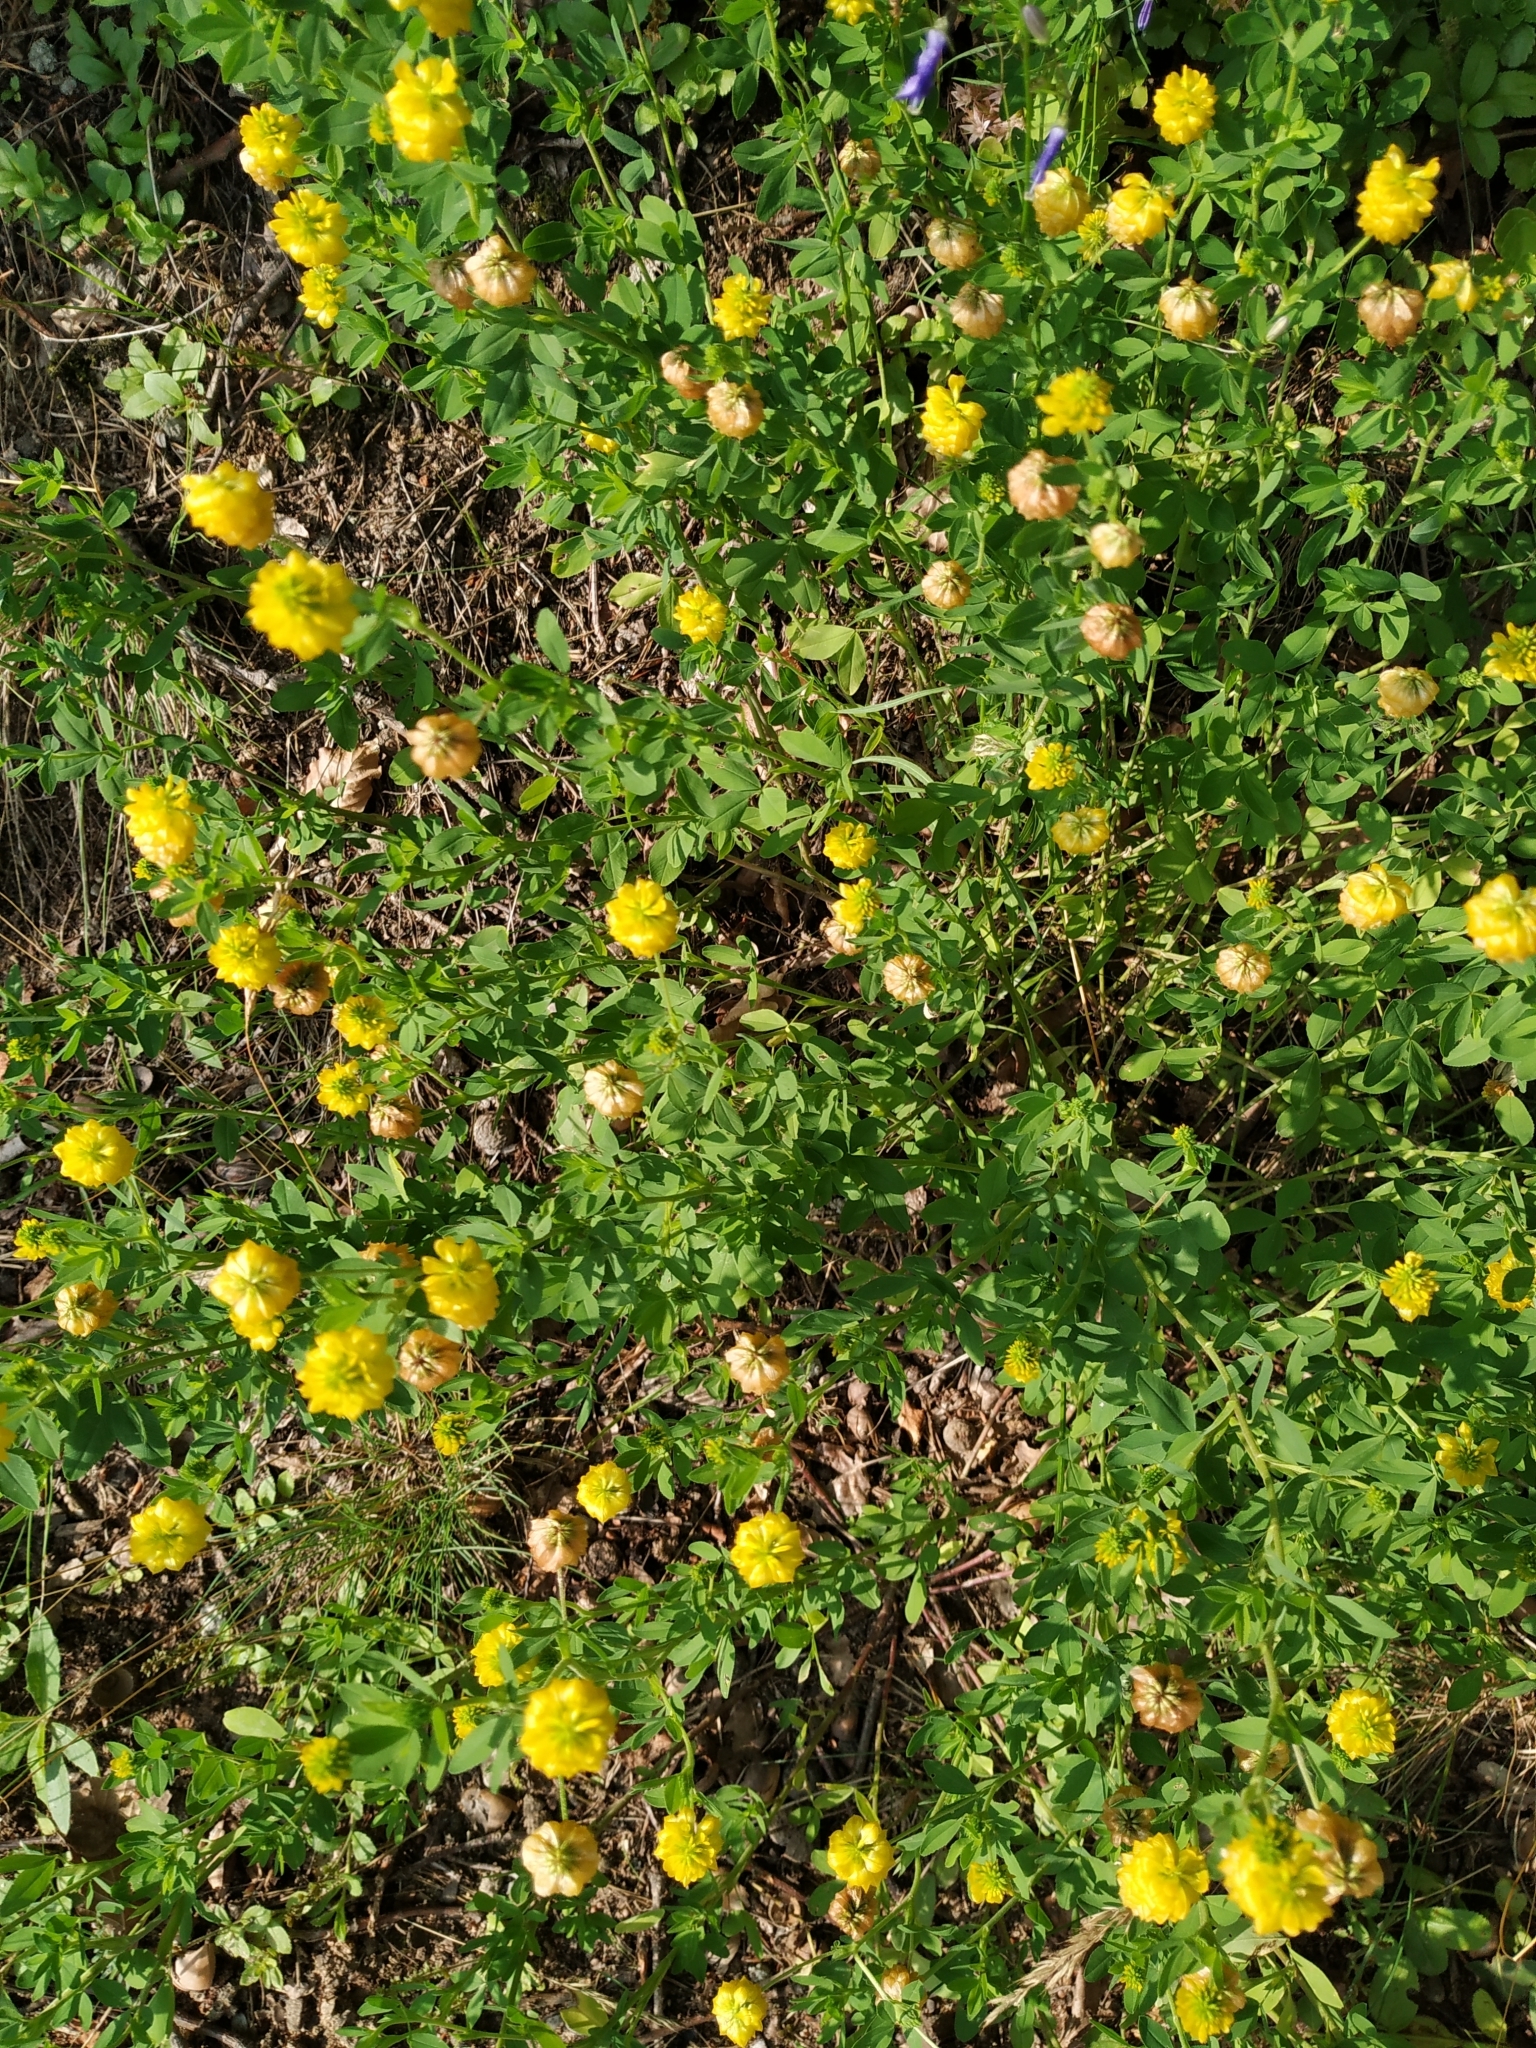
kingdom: Plantae
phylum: Tracheophyta
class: Magnoliopsida
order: Fabales
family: Fabaceae
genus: Trifolium
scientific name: Trifolium aureum
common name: Golden clover
